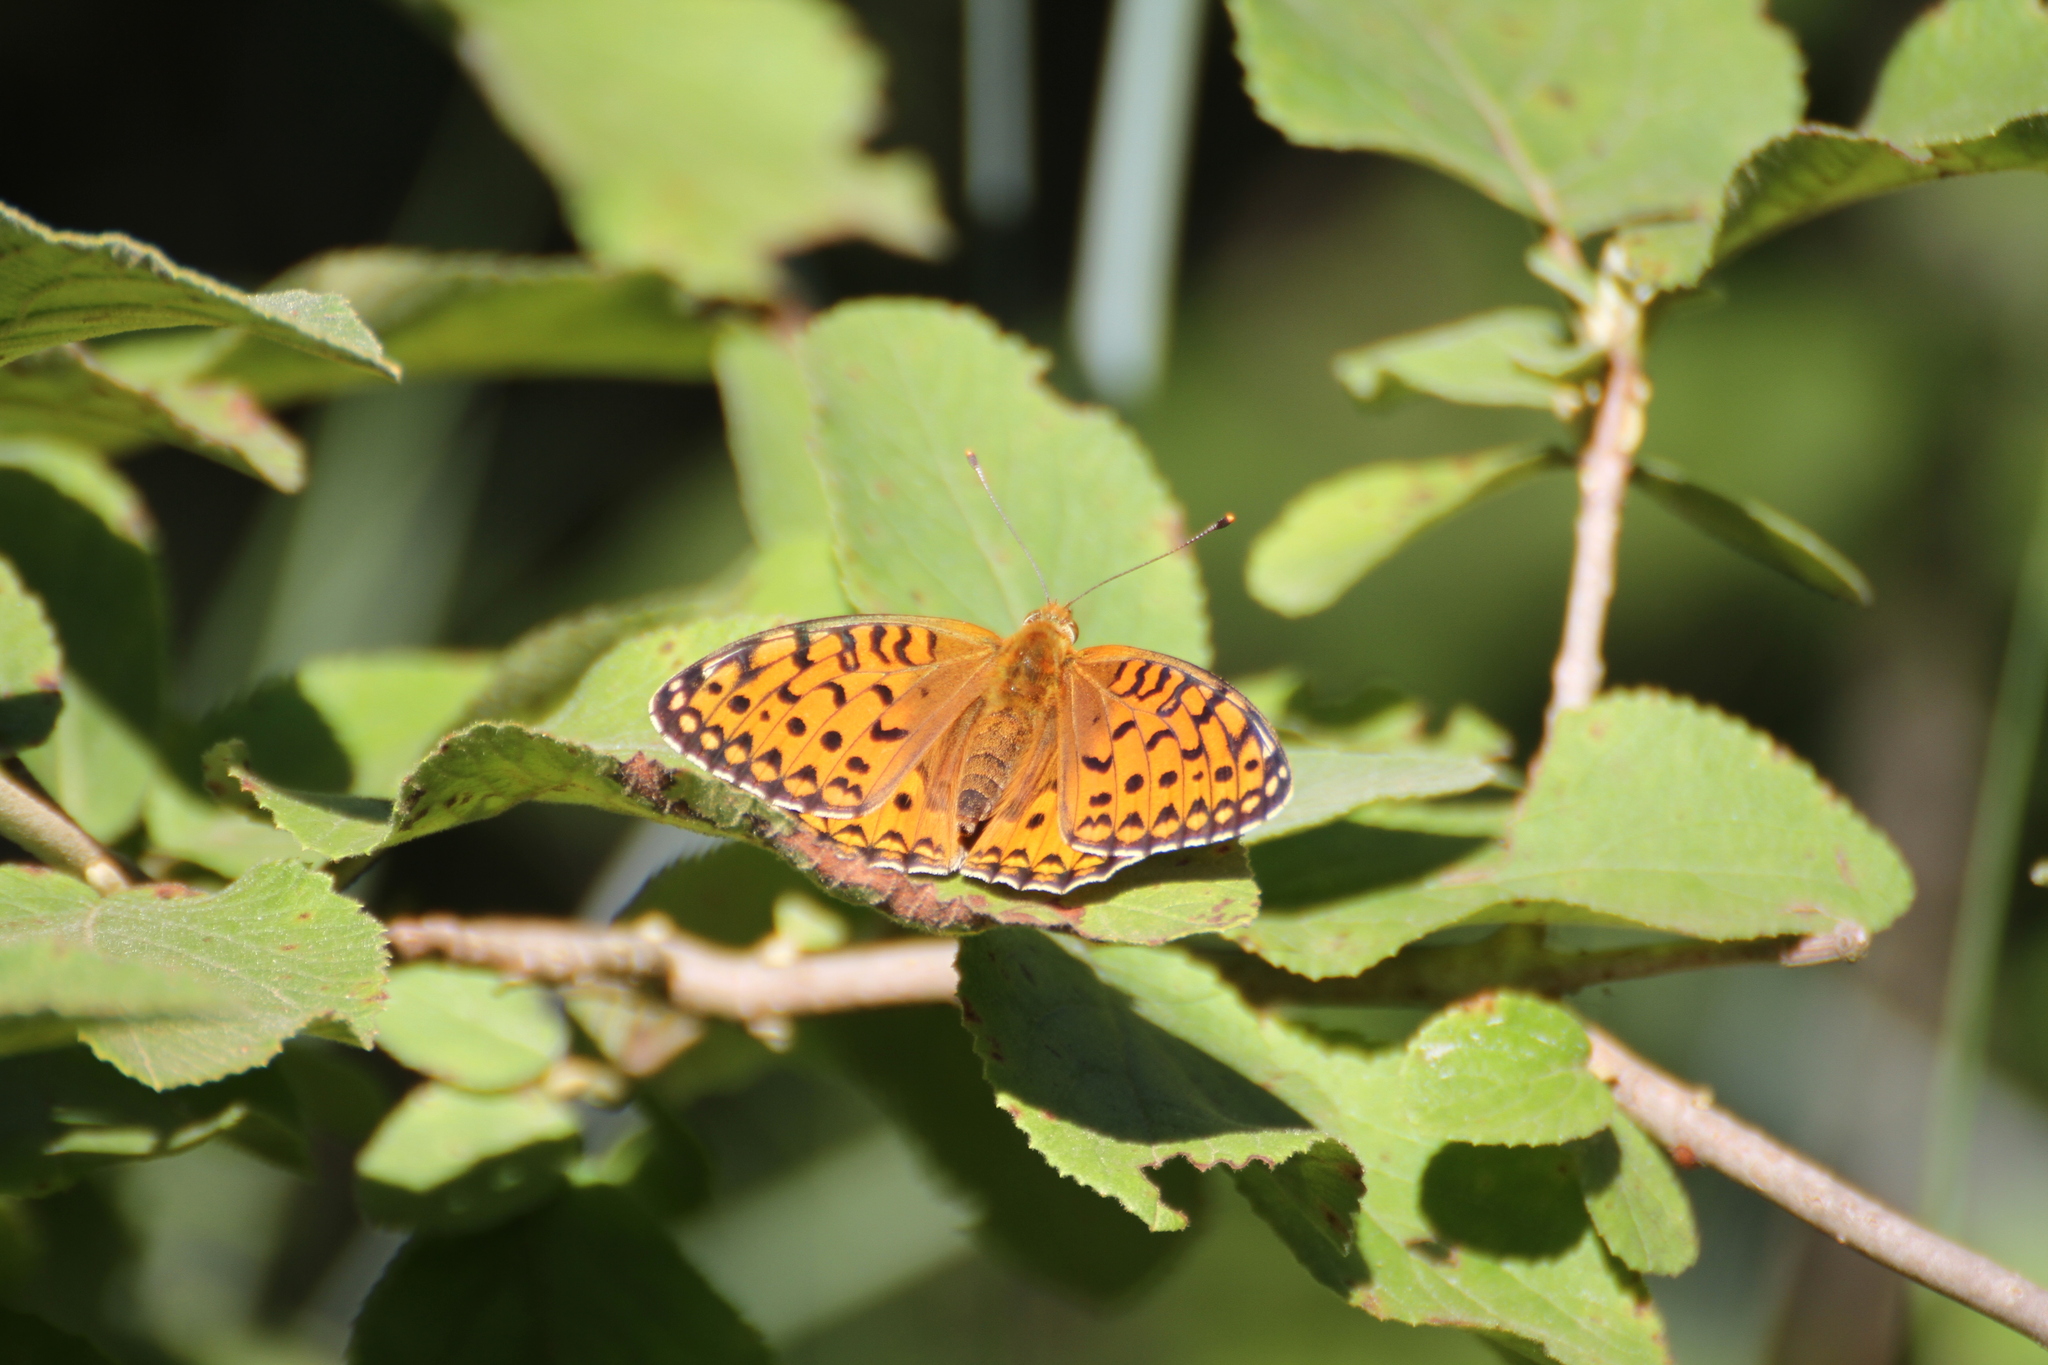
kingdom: Animalia
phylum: Arthropoda
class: Insecta
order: Lepidoptera
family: Nymphalidae
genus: Speyeria
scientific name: Speyeria aglaja
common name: Dark green fritillary
